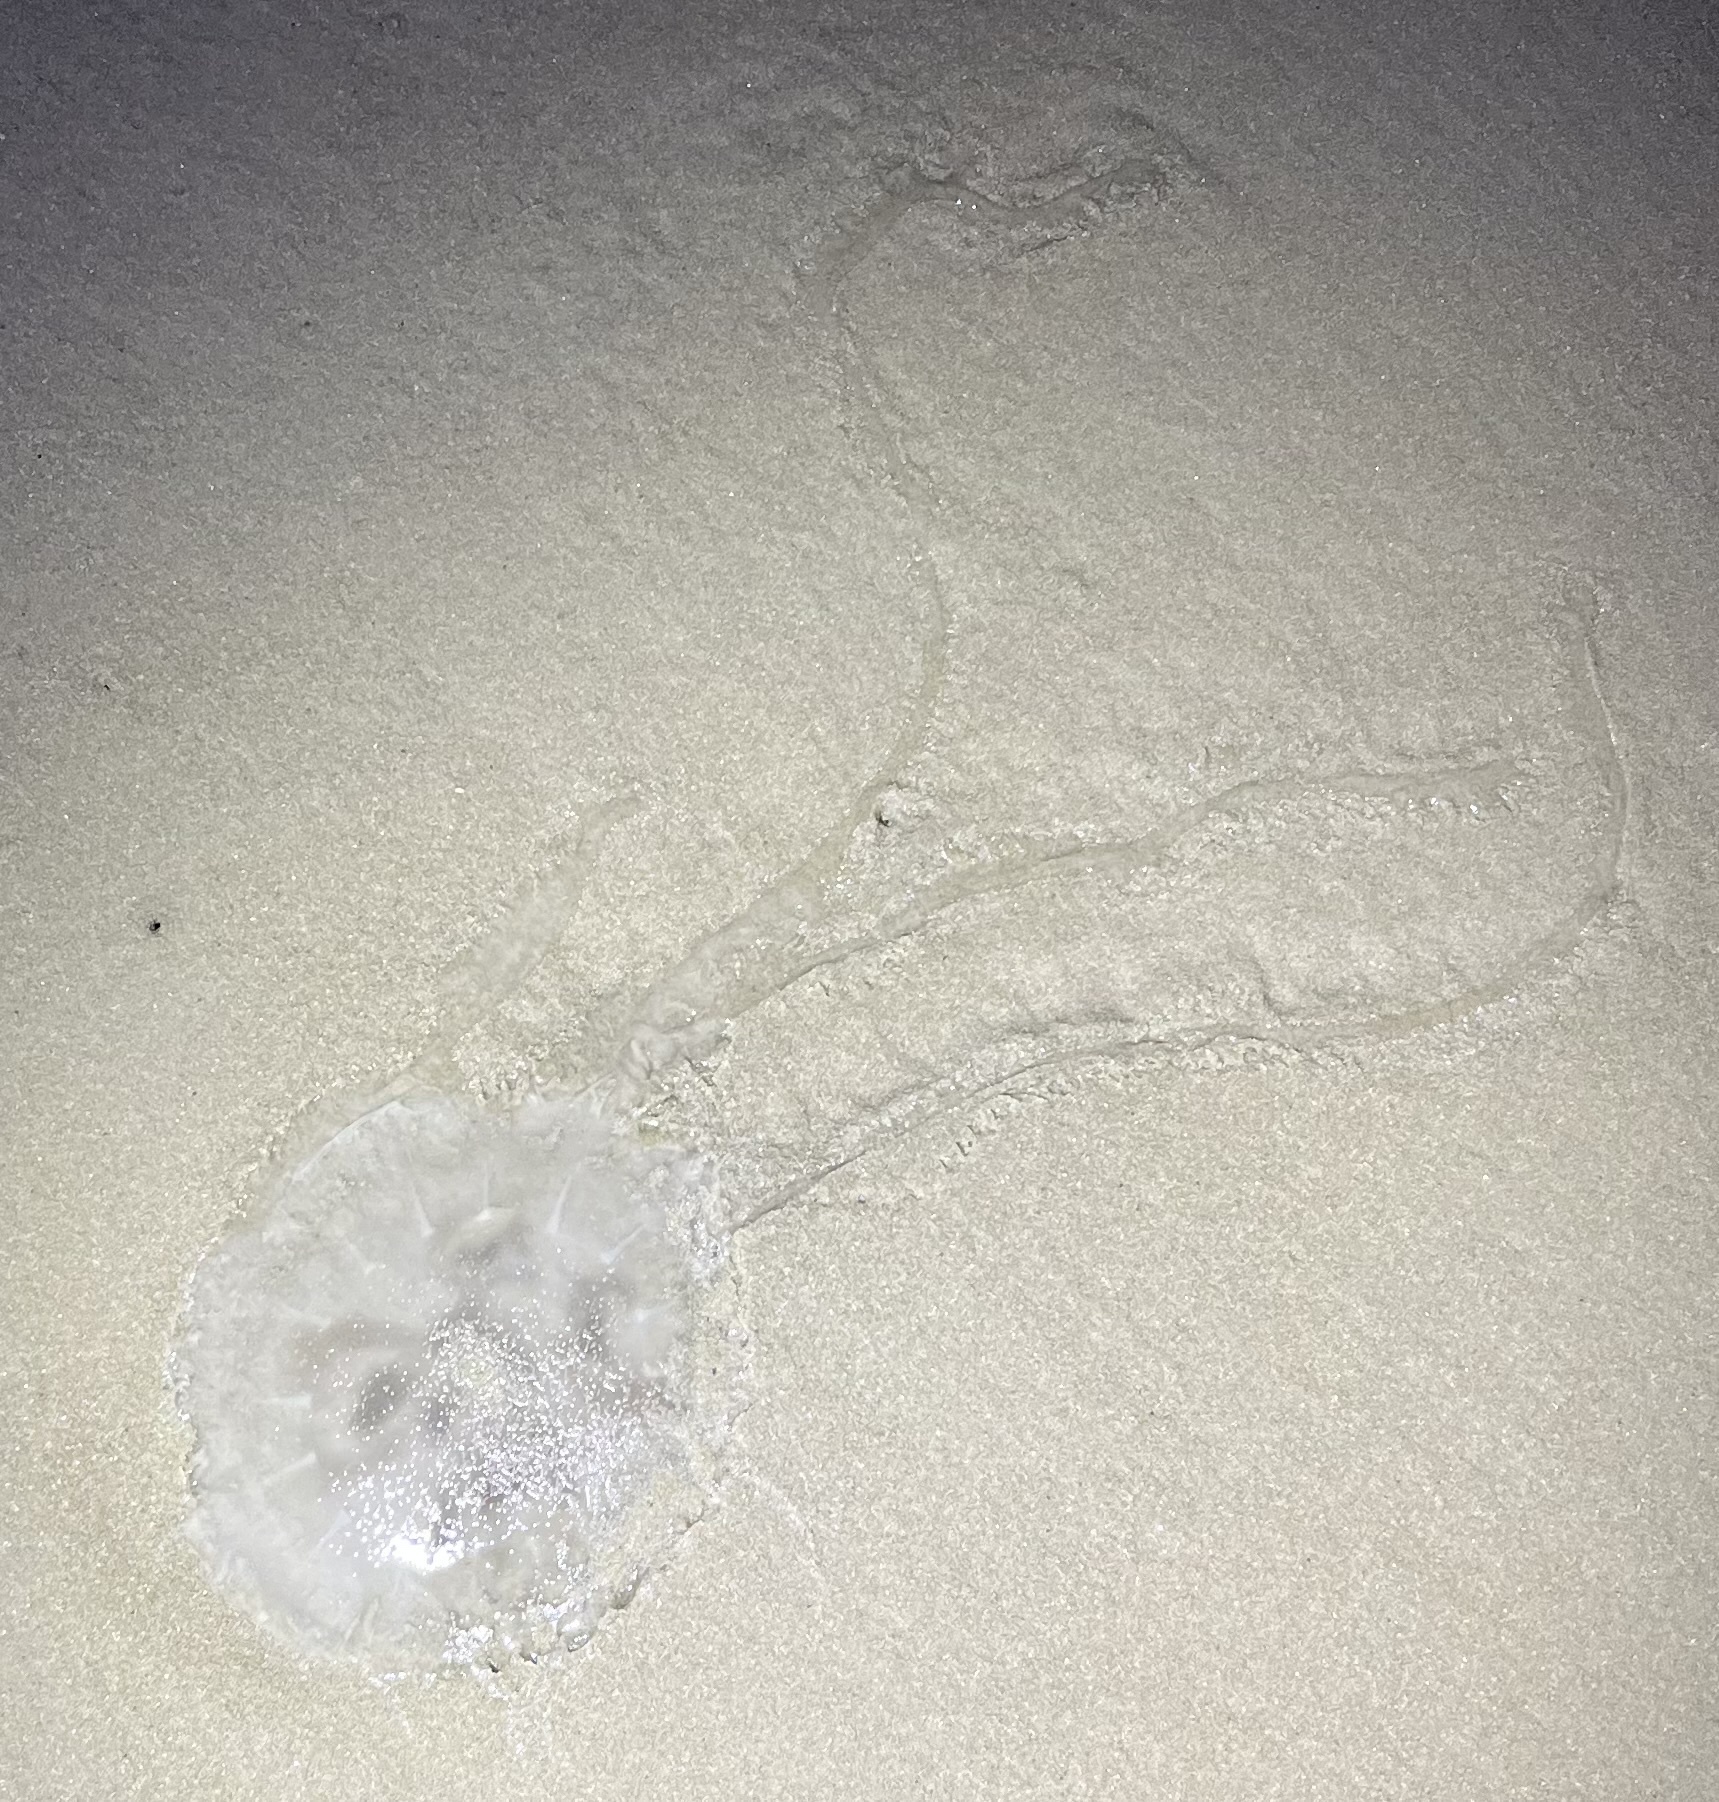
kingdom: Animalia
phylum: Cnidaria
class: Scyphozoa
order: Semaeostomeae
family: Pelagiidae
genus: Chrysaora
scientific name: Chrysaora chesapeakei
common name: Bay nettle
